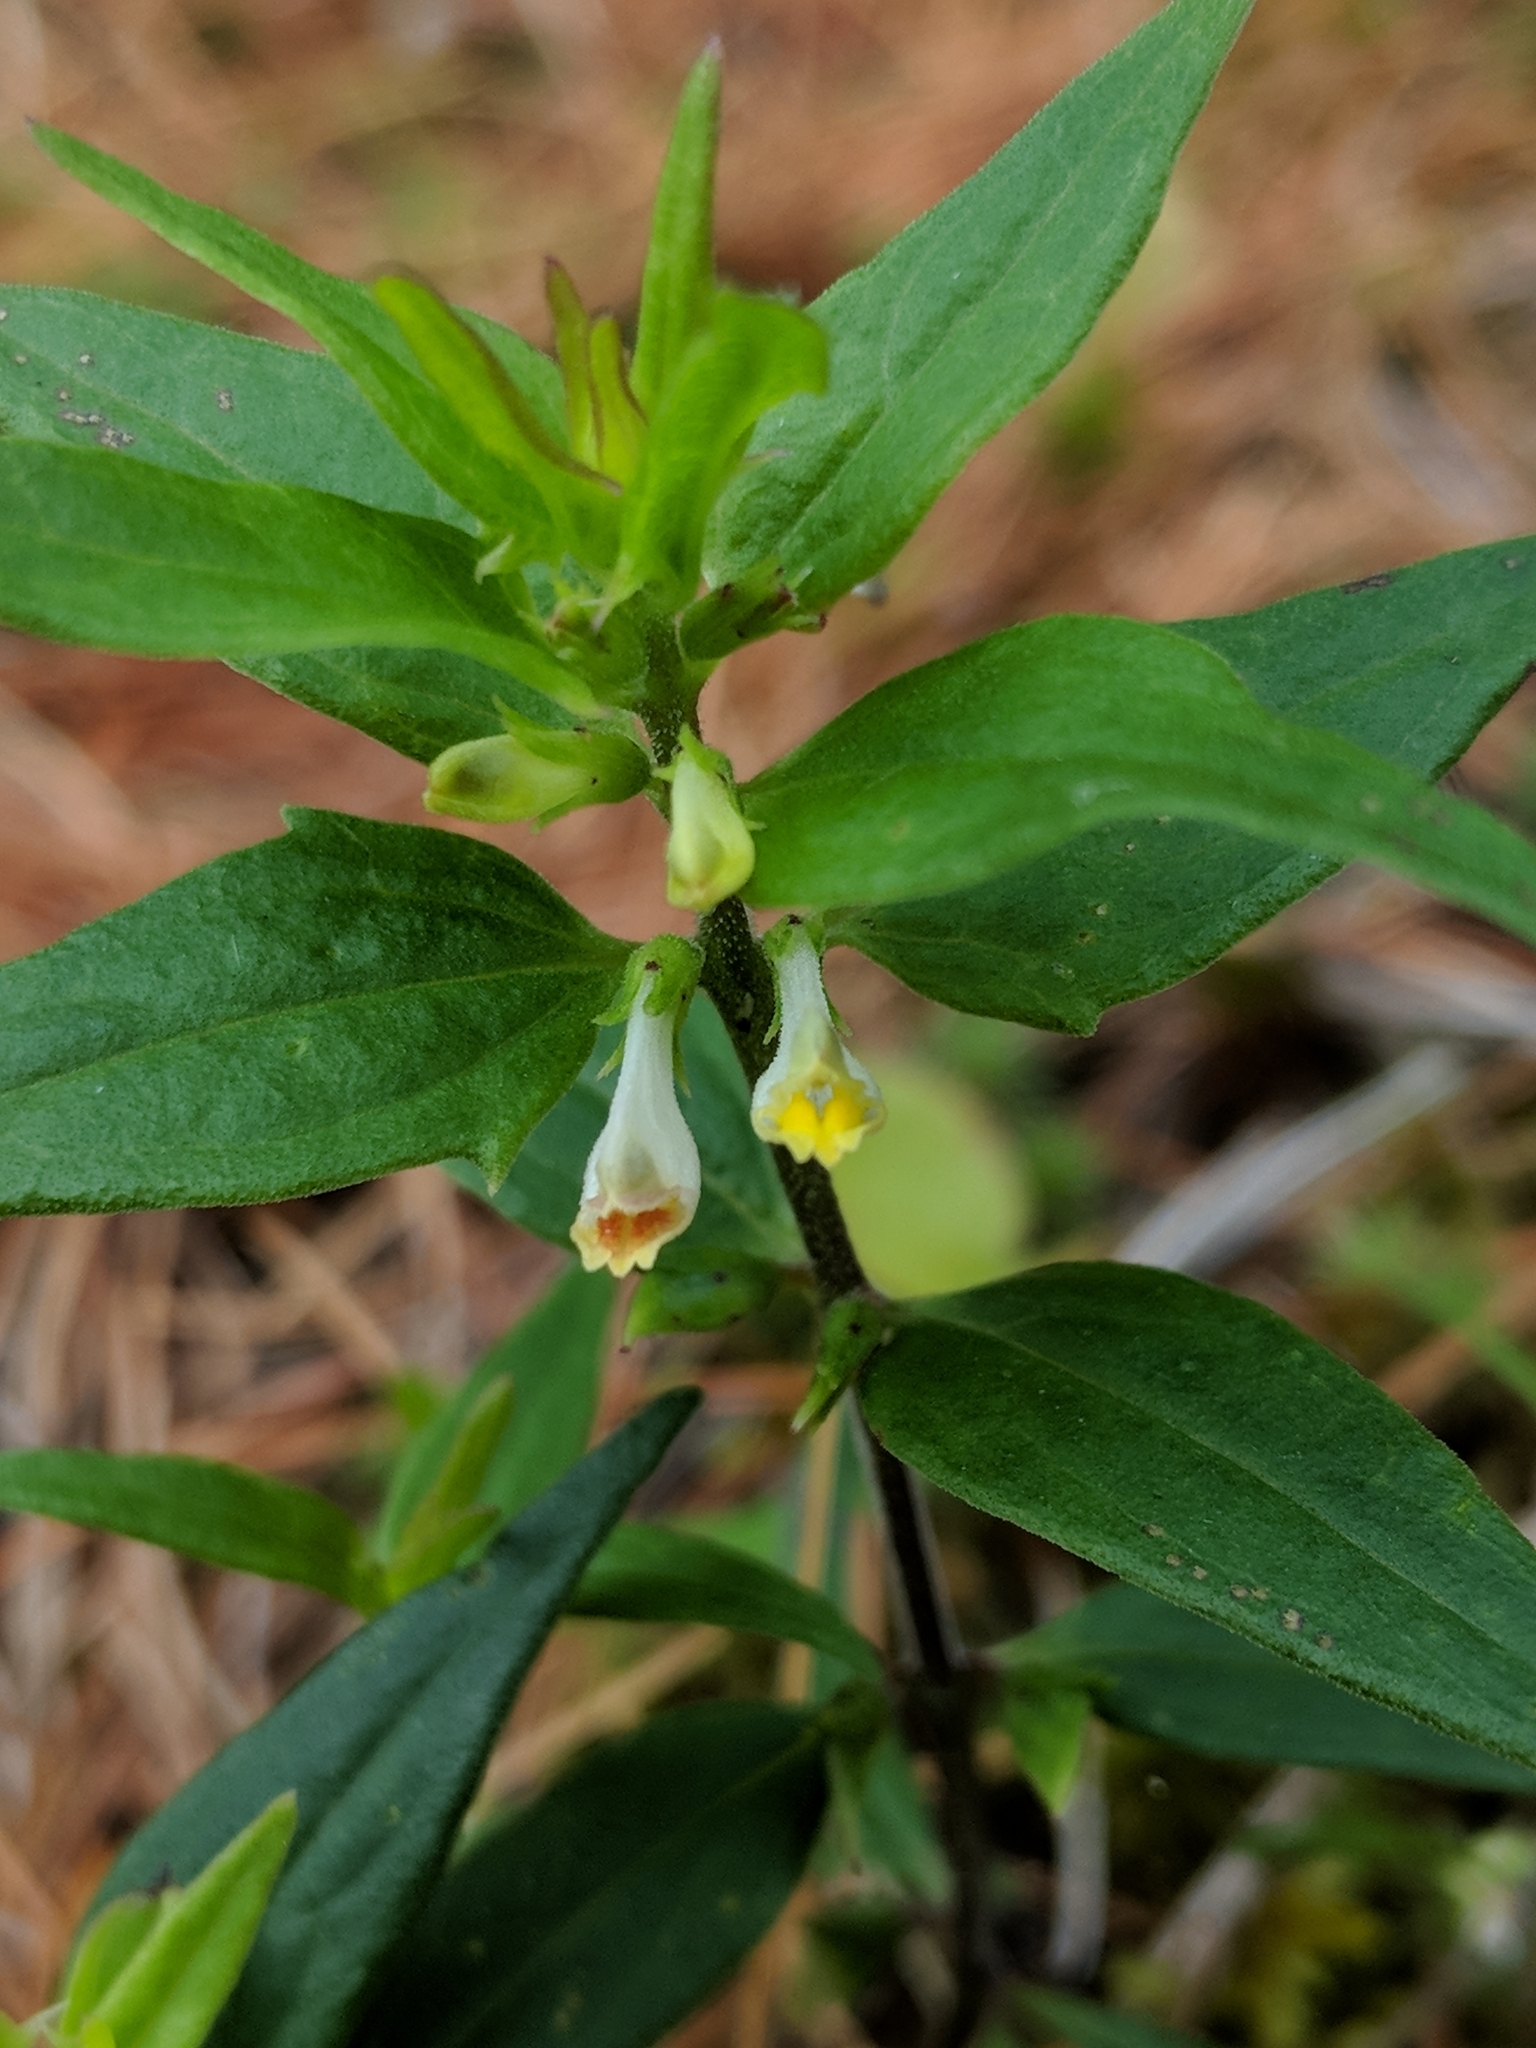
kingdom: Plantae
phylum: Tracheophyta
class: Magnoliopsida
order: Lamiales
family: Orobanchaceae
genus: Melampyrum
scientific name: Melampyrum lineare
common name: American cow-wheat
